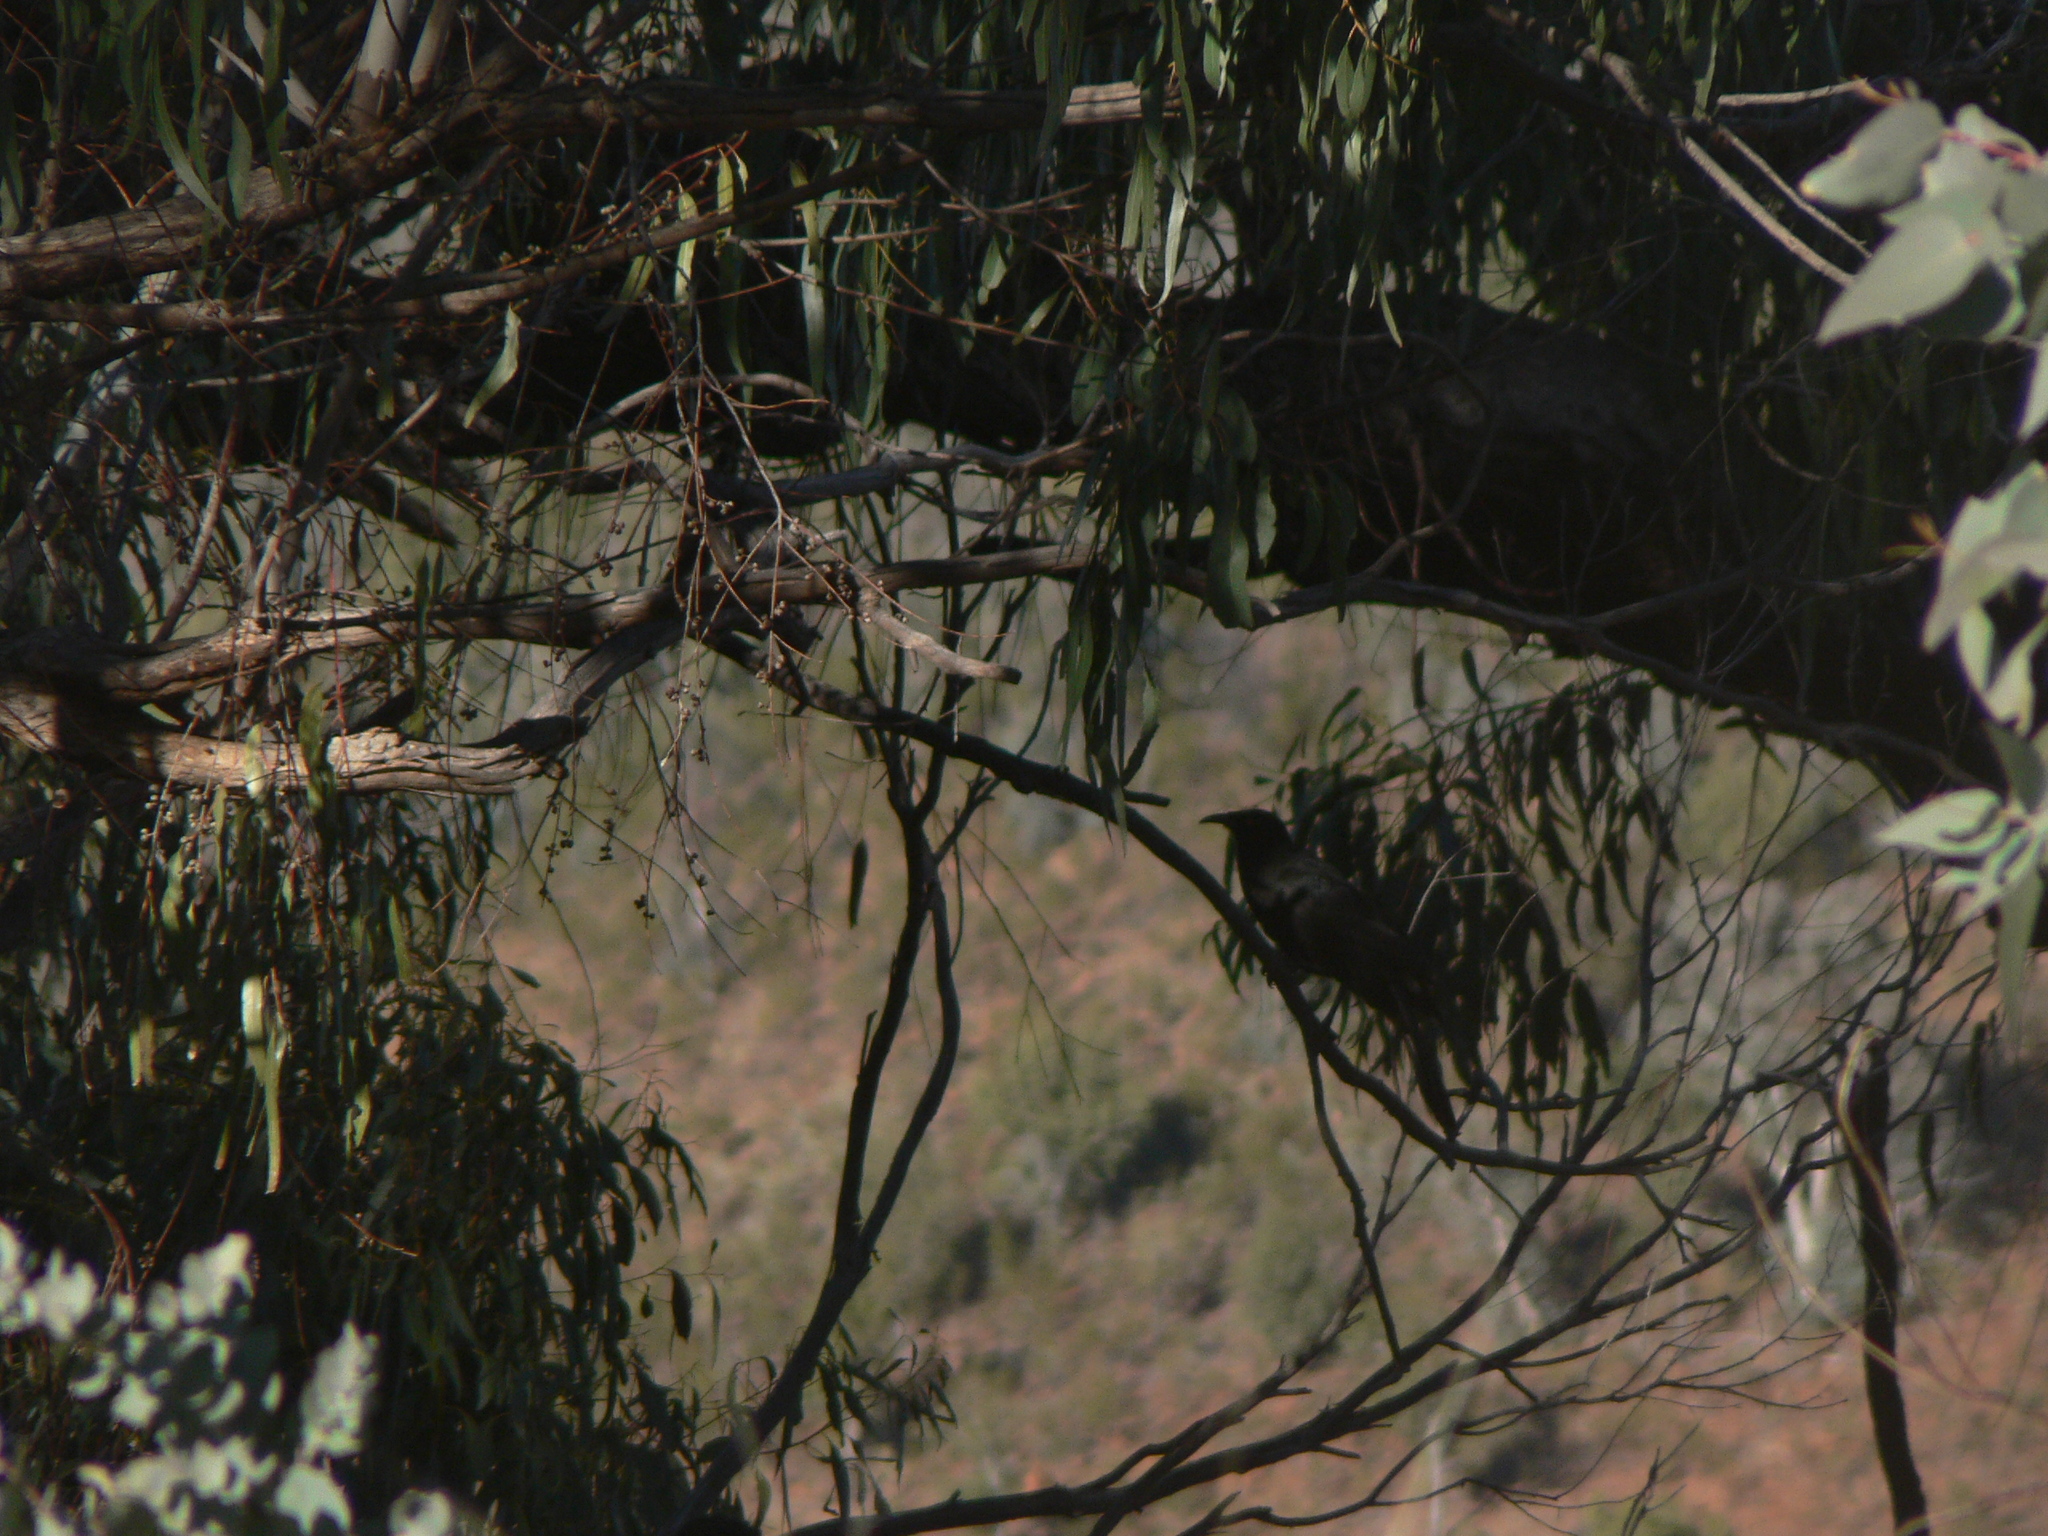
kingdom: Animalia
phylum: Chordata
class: Aves
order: Passeriformes
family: Corcoracidae
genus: Corcorax
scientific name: Corcorax melanoramphos
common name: White-winged chough
